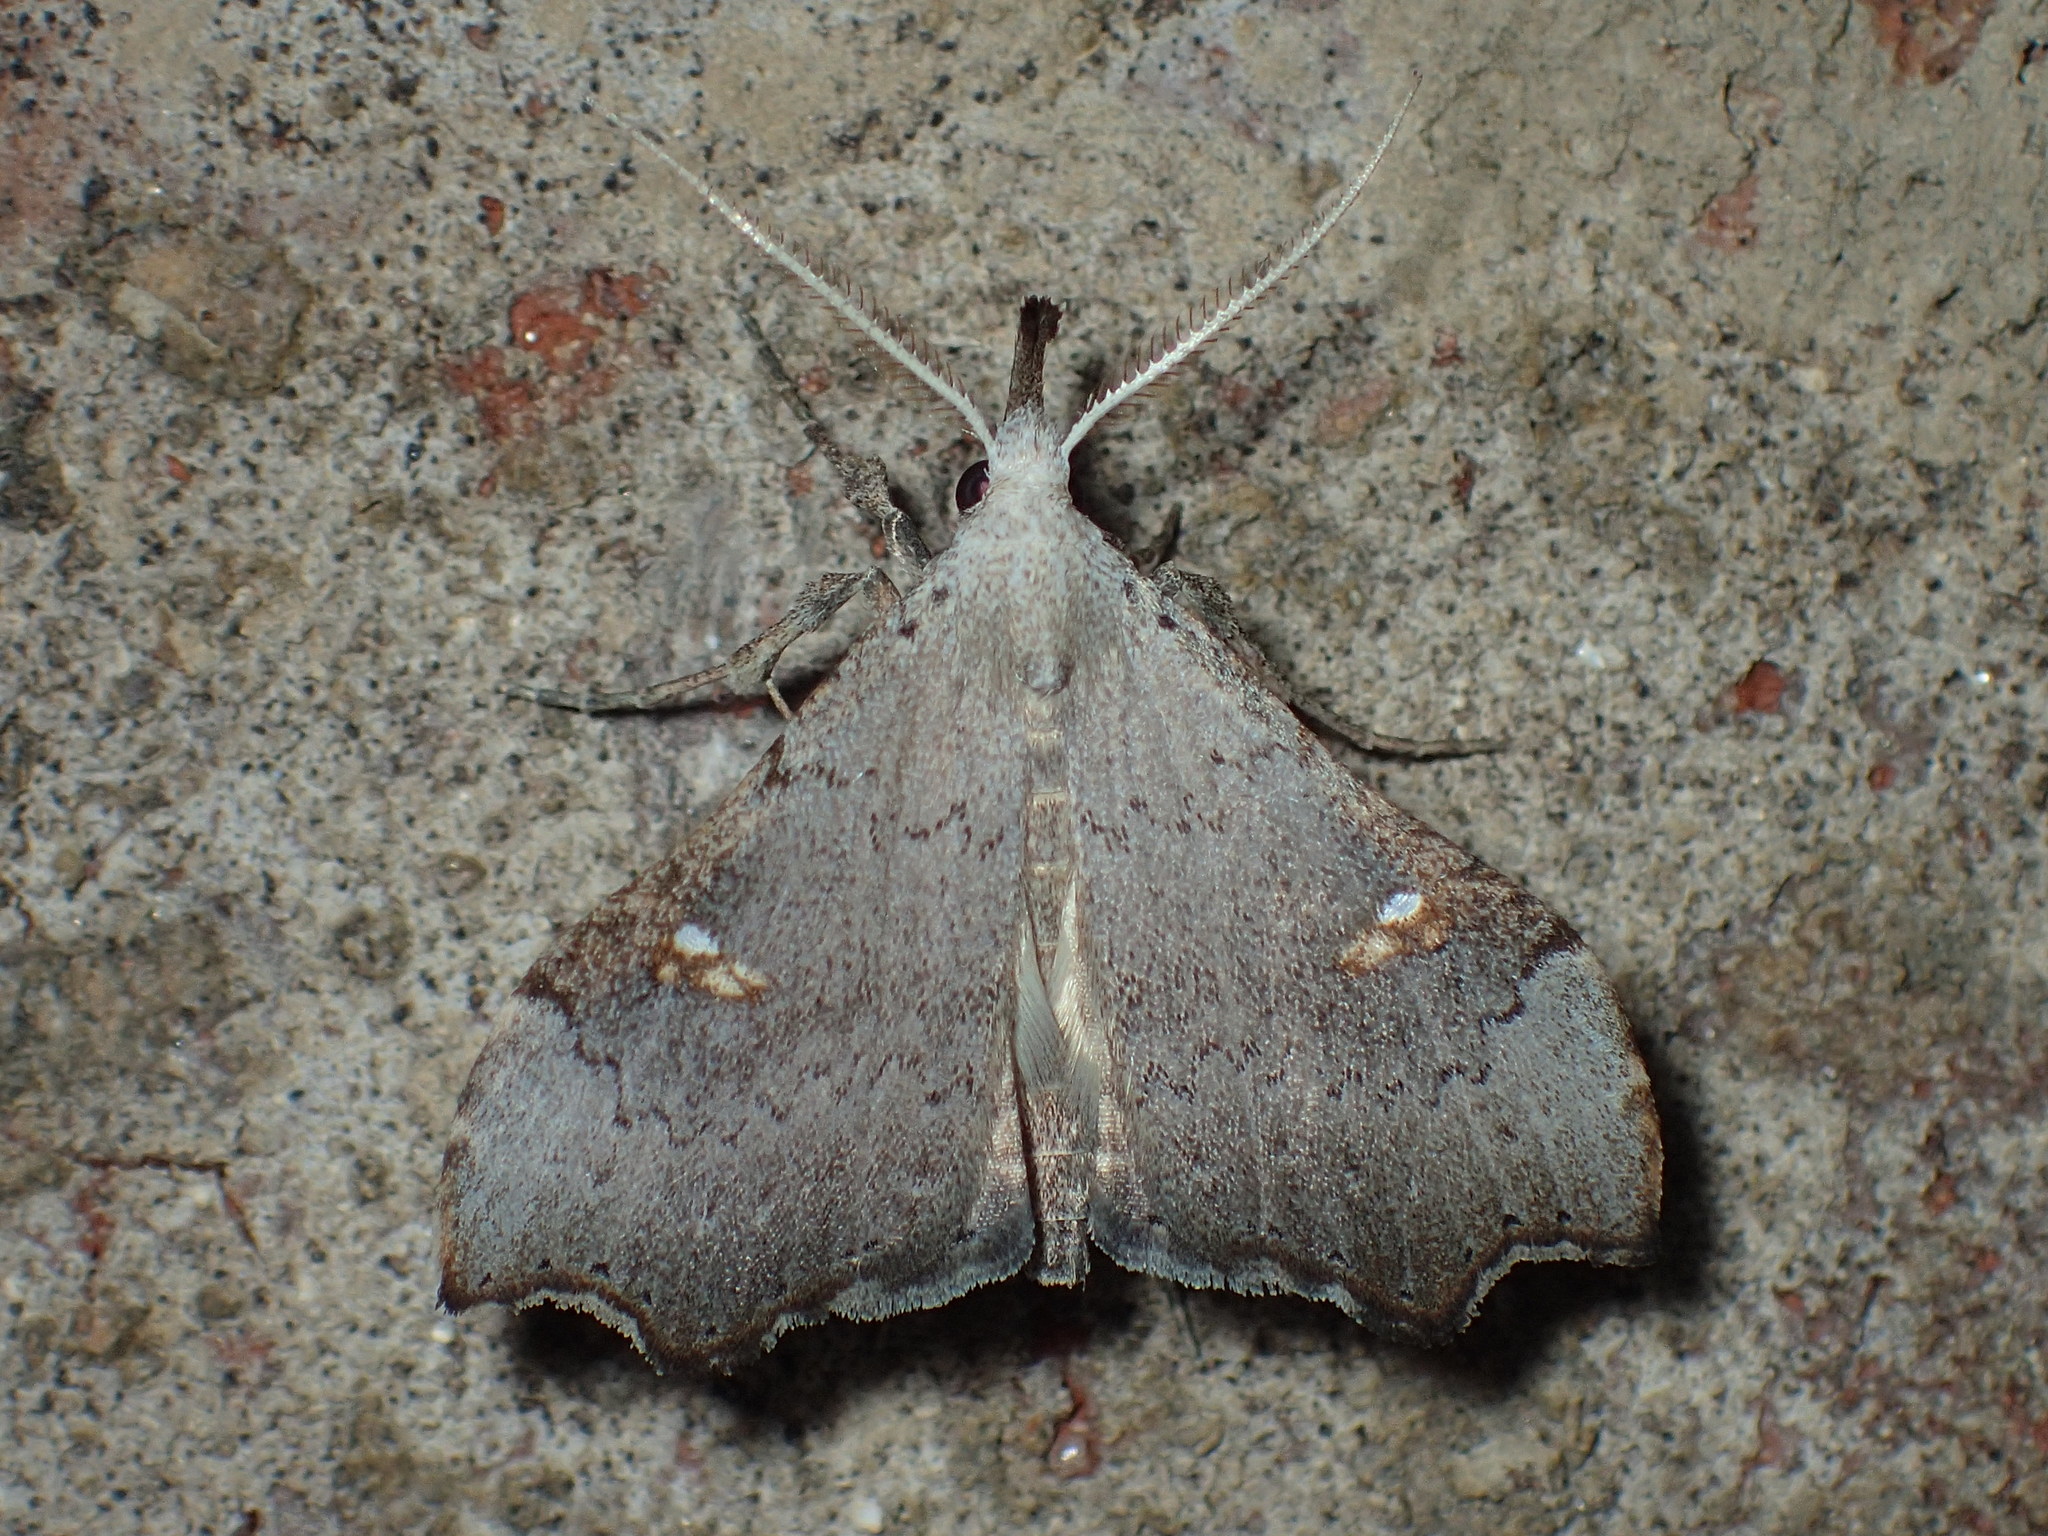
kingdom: Animalia
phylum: Arthropoda
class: Insecta
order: Lepidoptera
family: Erebidae
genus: Redectis
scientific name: Redectis vitrea
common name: White-spotted redectis
